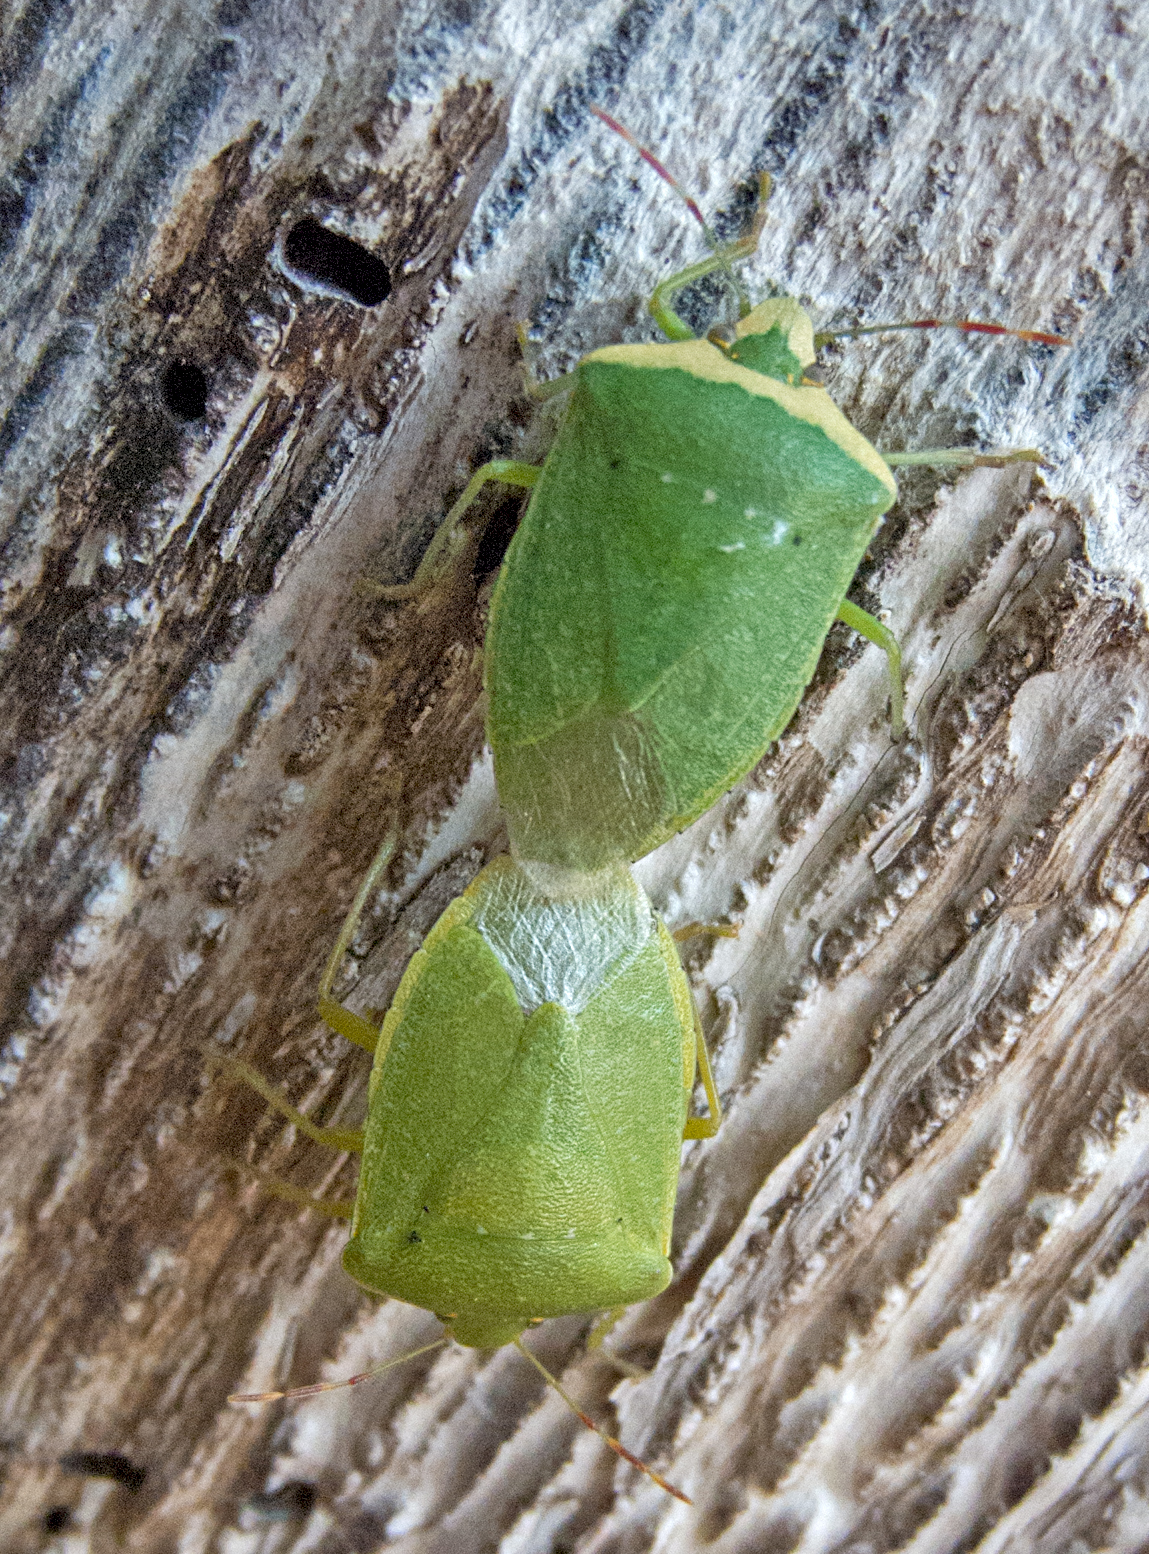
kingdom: Animalia
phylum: Arthropoda
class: Insecta
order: Hemiptera
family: Pentatomidae
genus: Nezara
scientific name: Nezara viridula
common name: Southern green stink bug
